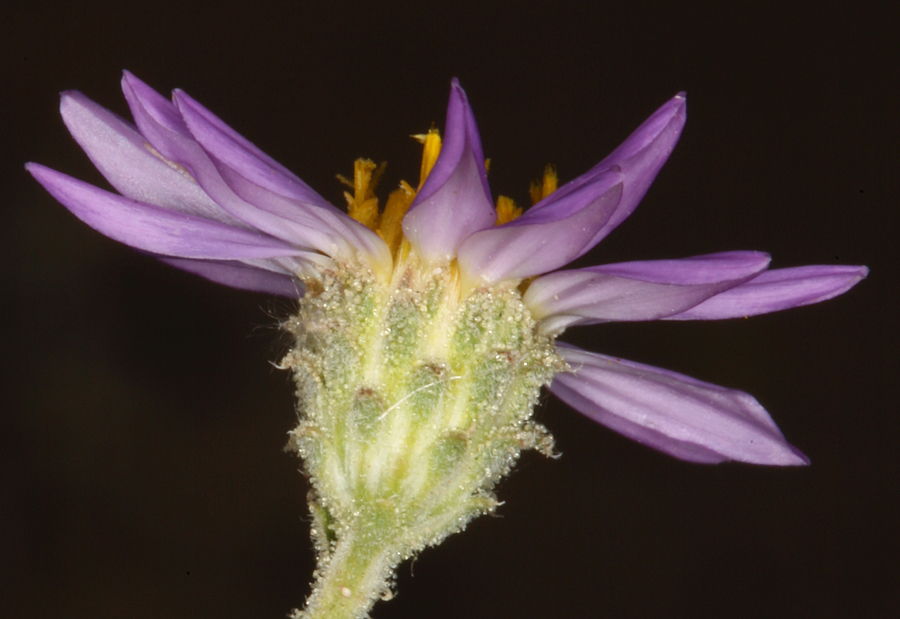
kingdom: Plantae
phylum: Tracheophyta
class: Magnoliopsida
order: Asterales
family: Asteraceae
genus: Dieteria
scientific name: Dieteria canescens
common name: Hoary-aster
